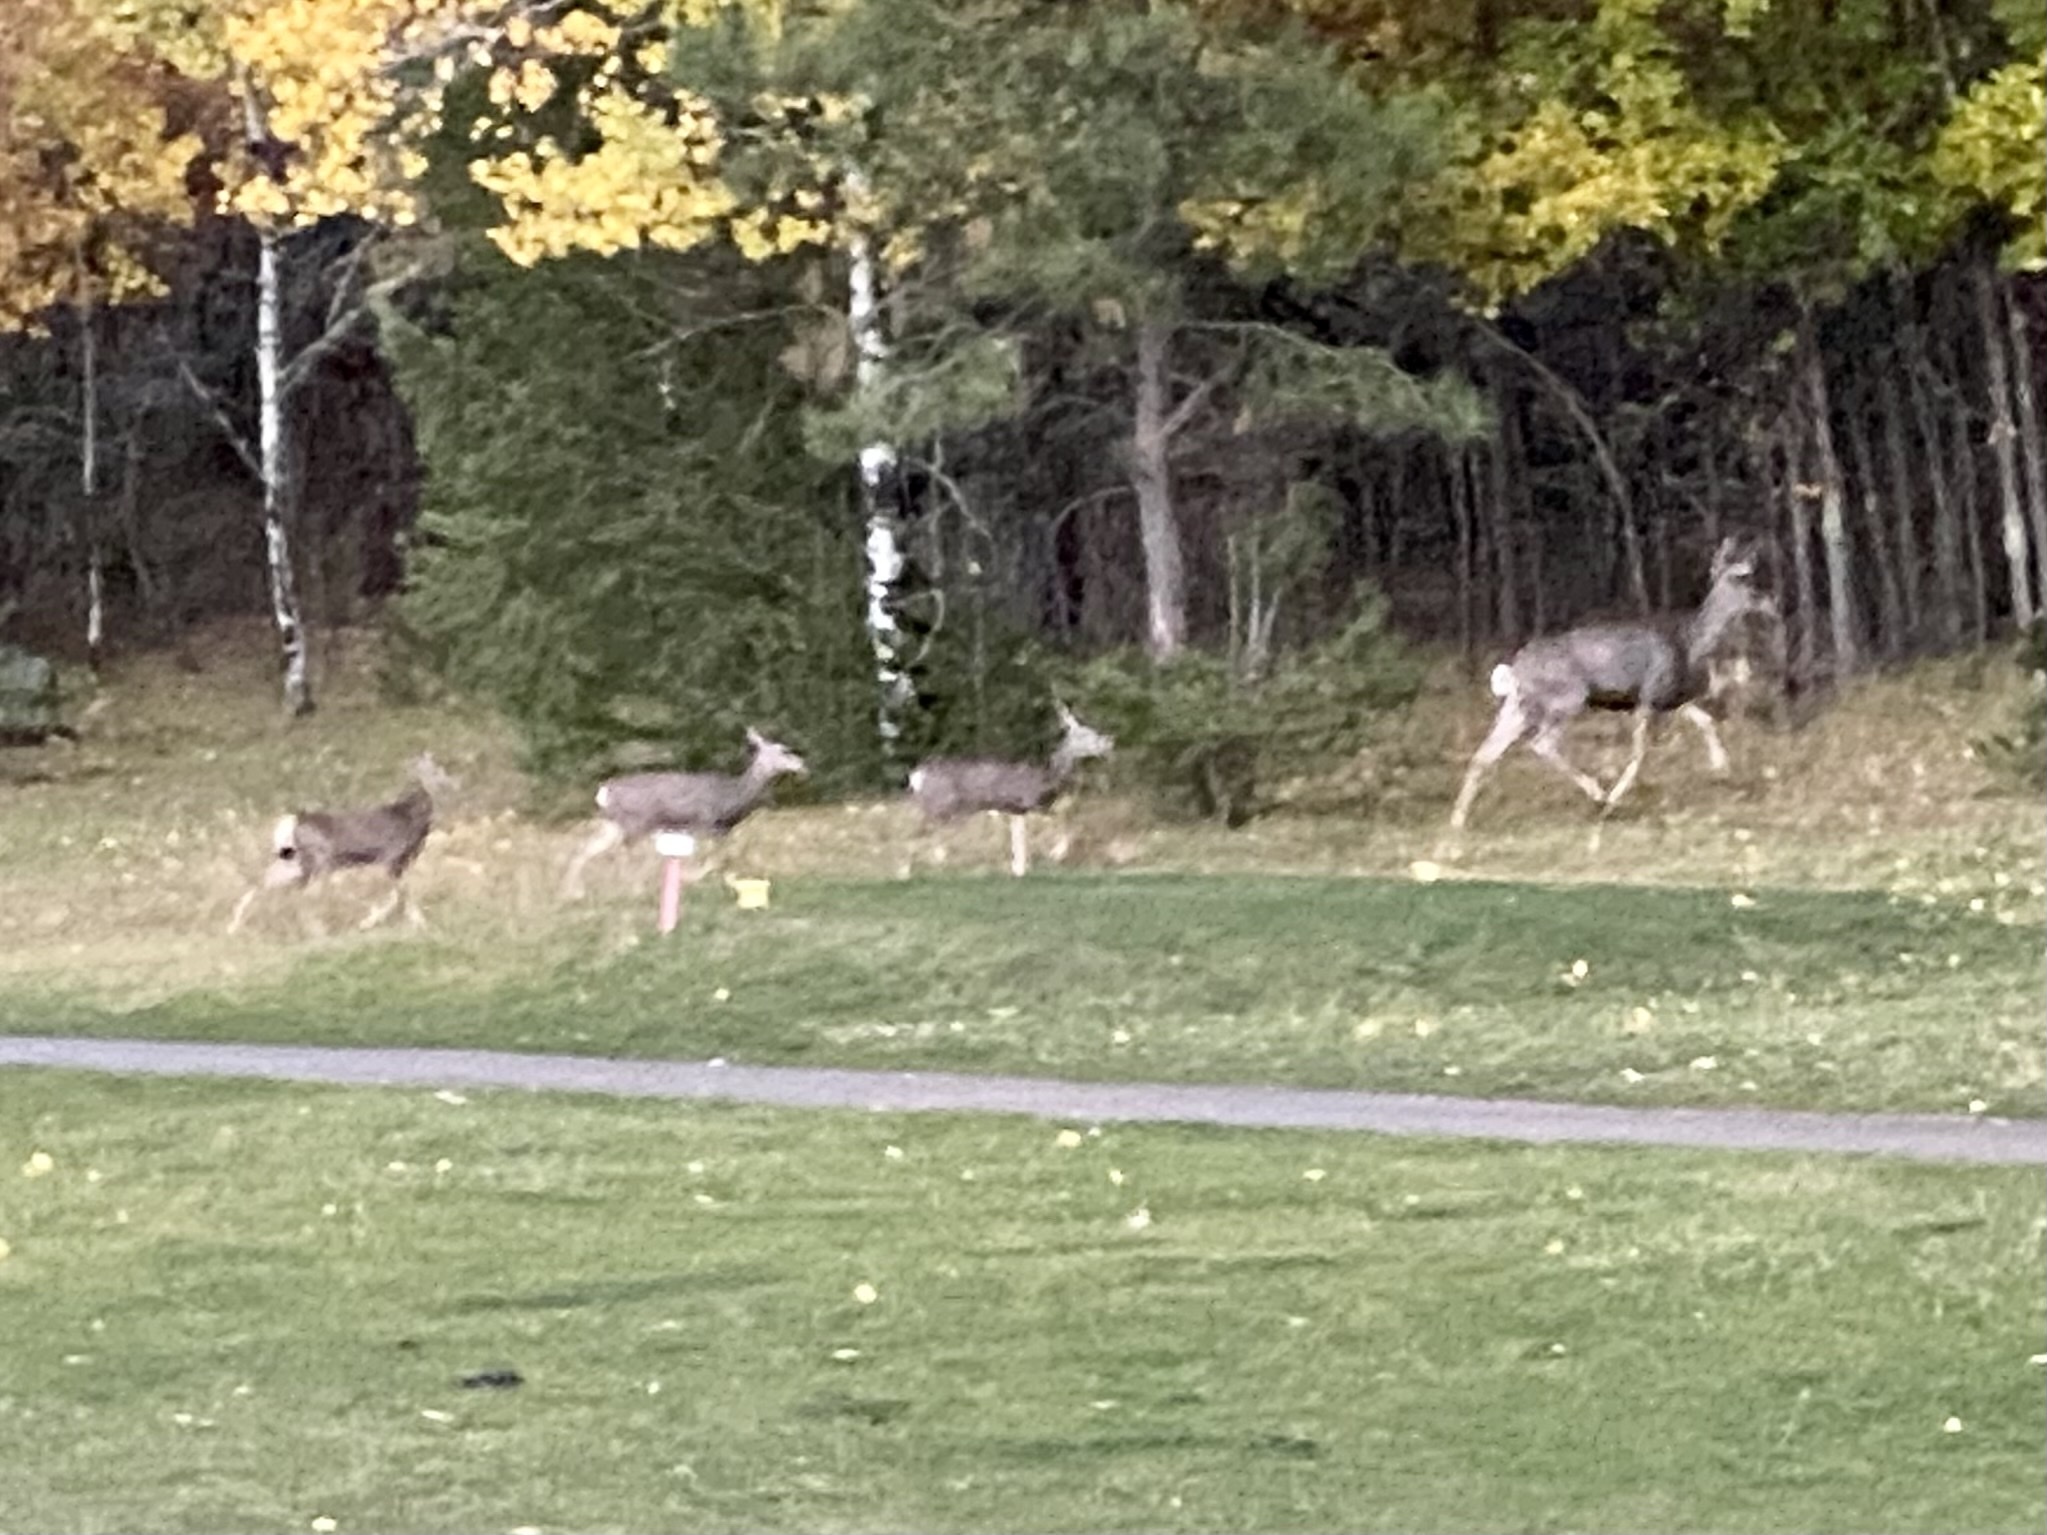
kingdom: Animalia
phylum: Chordata
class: Mammalia
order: Artiodactyla
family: Cervidae
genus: Odocoileus
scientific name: Odocoileus hemionus
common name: Mule deer
